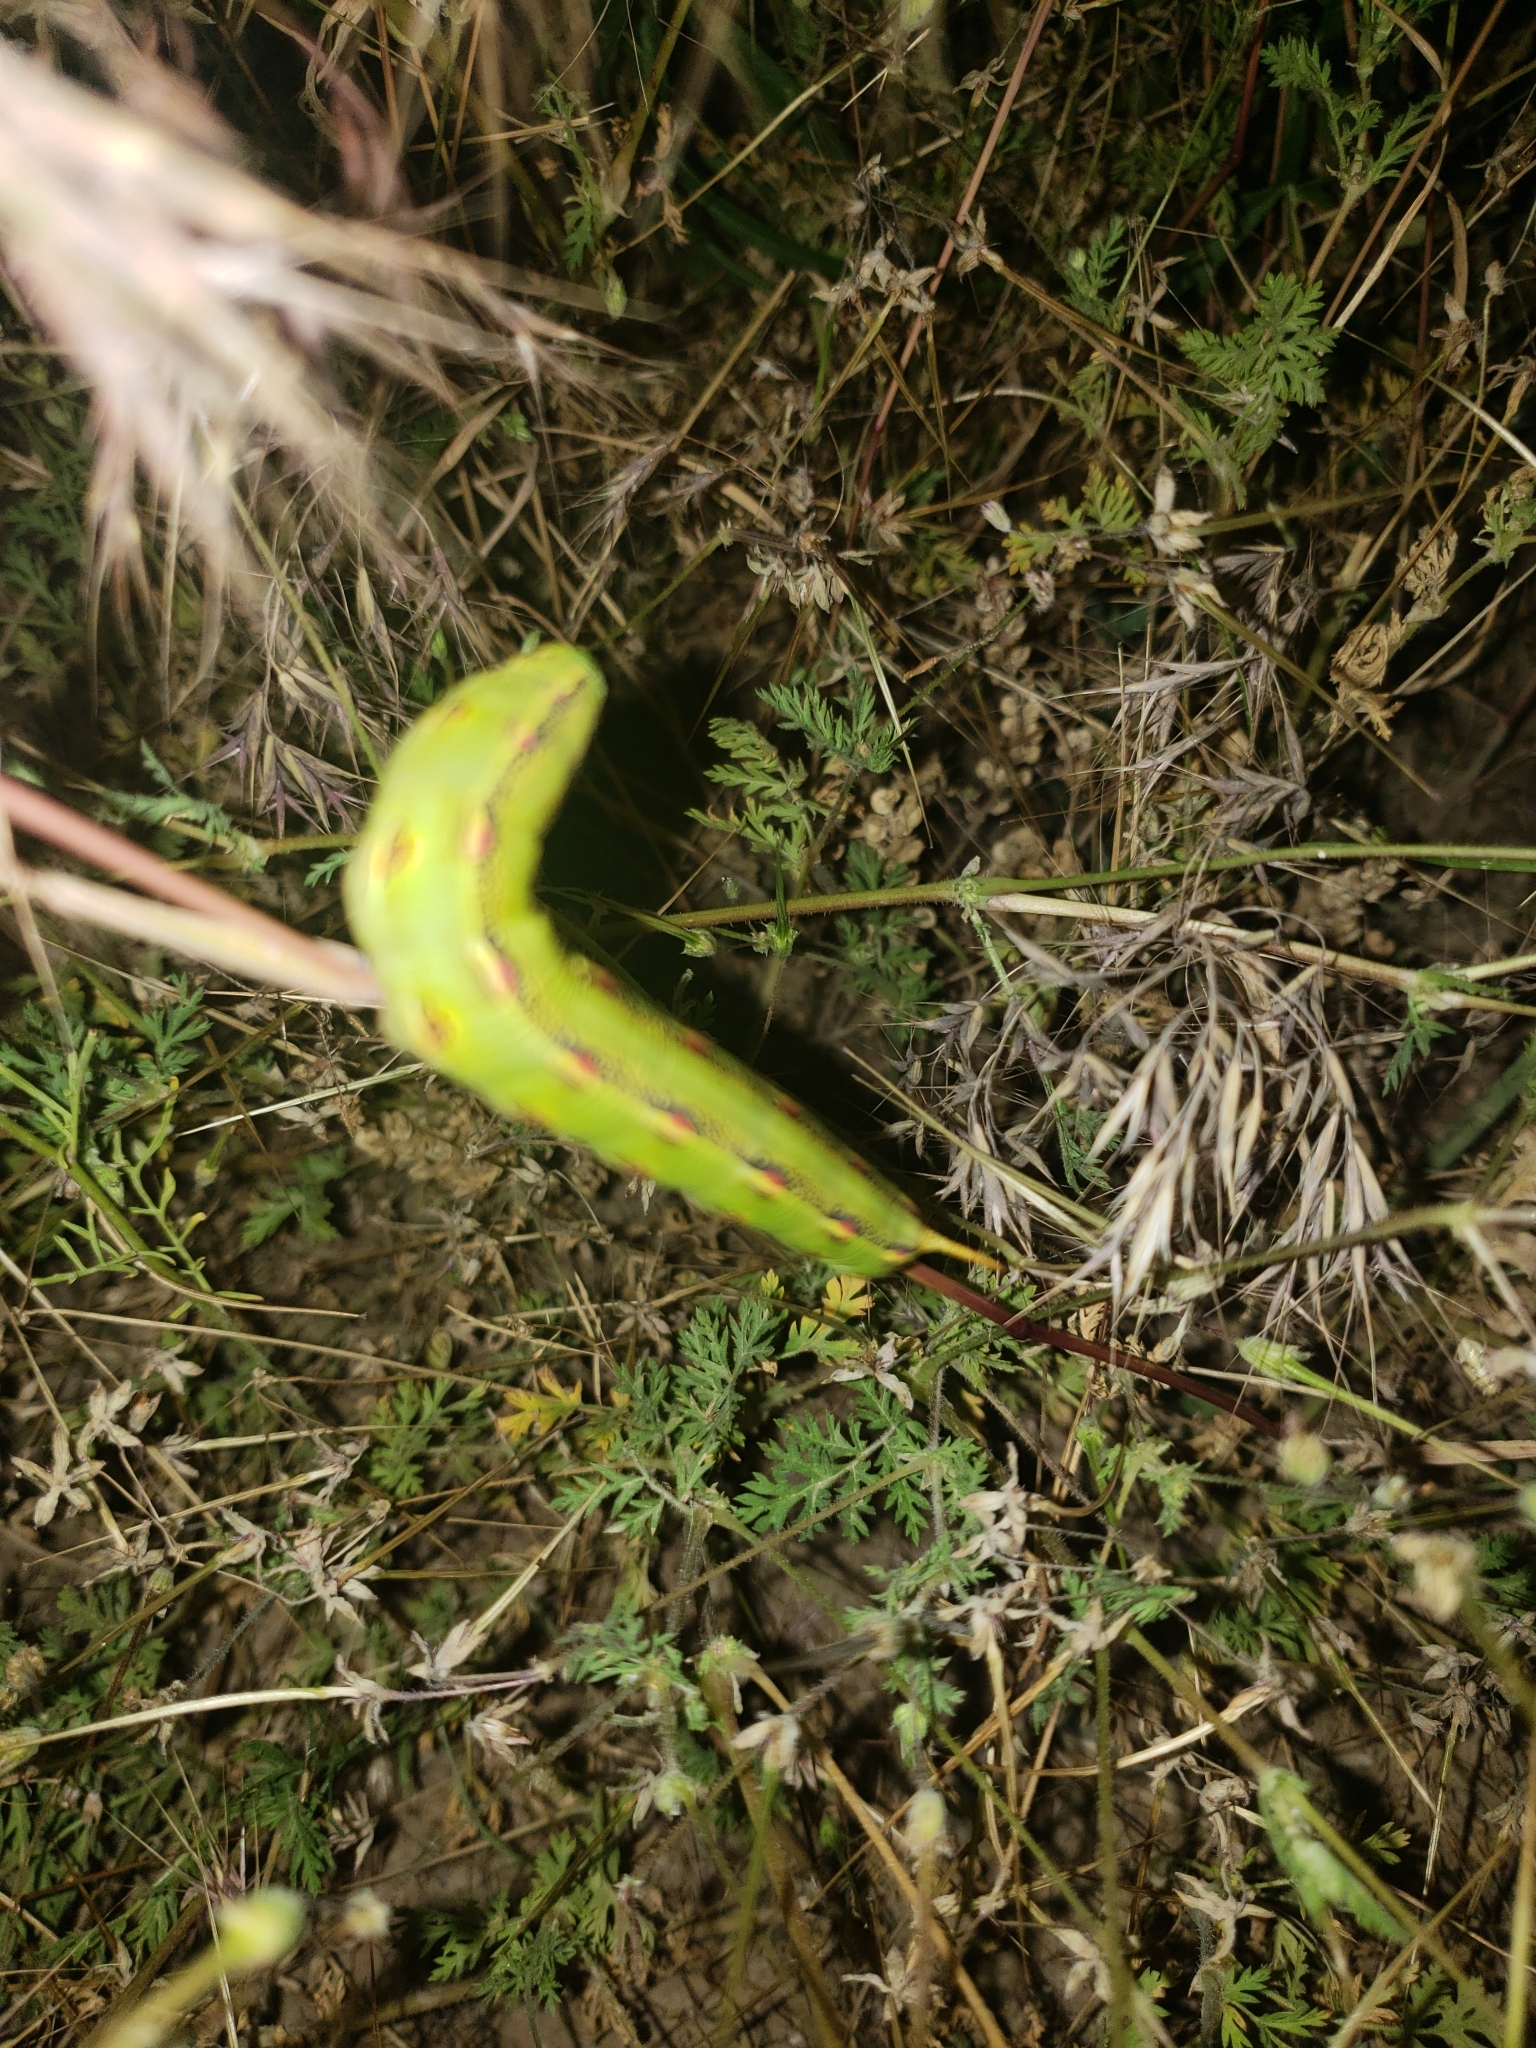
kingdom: Animalia
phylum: Arthropoda
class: Insecta
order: Lepidoptera
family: Sphingidae
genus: Hyles
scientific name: Hyles lineata
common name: White-lined sphinx
